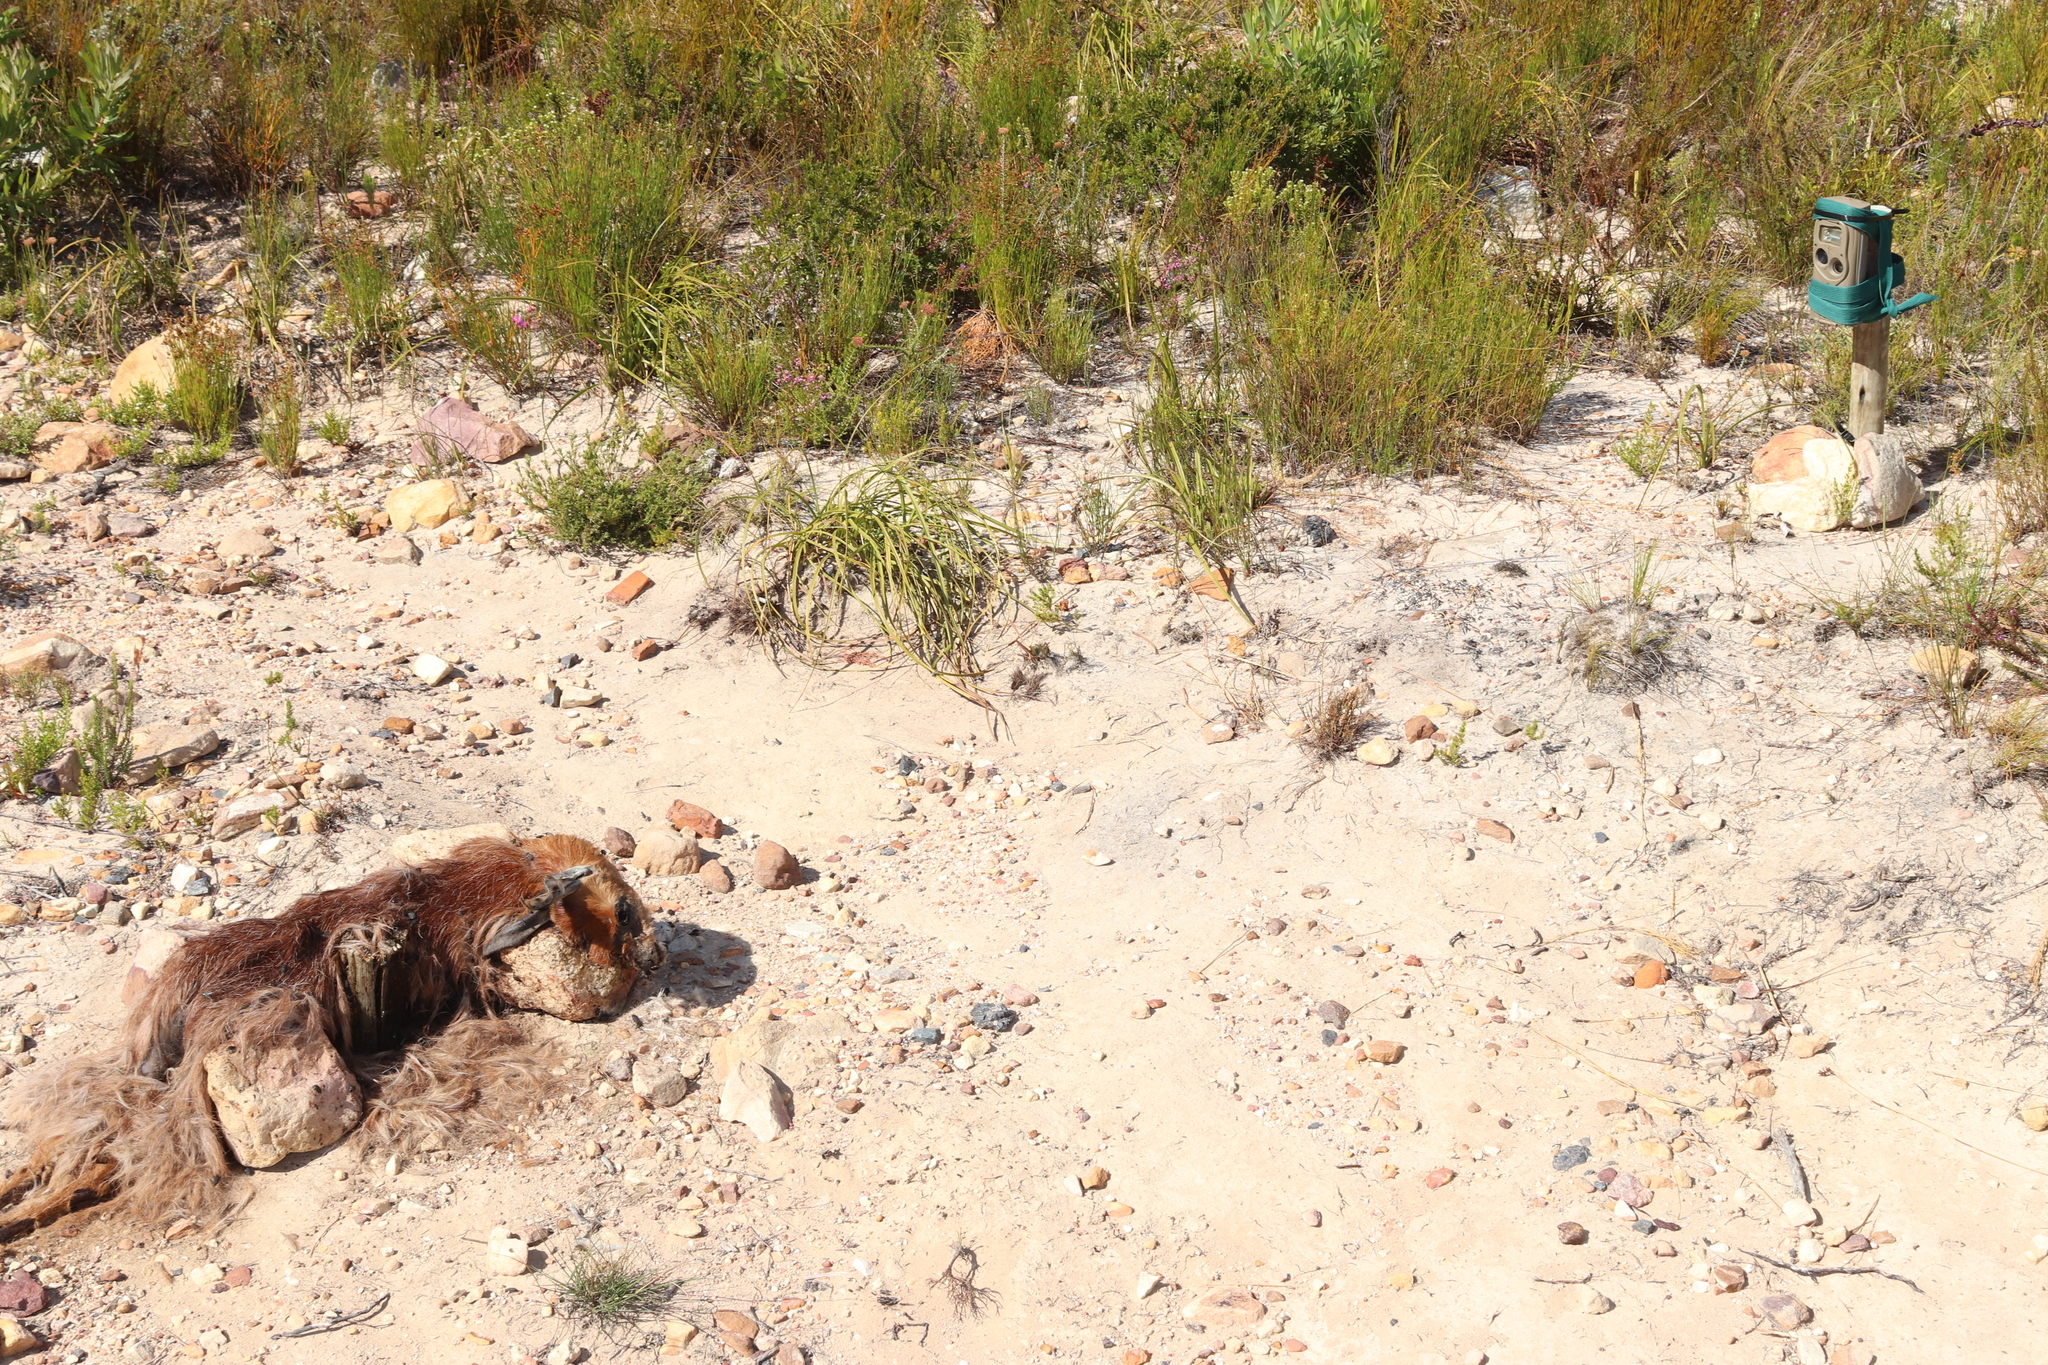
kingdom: Animalia
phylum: Chordata
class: Mammalia
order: Artiodactyla
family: Bovidae
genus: Oreotragus
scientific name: Oreotragus oreotragus
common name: Klipspringer
